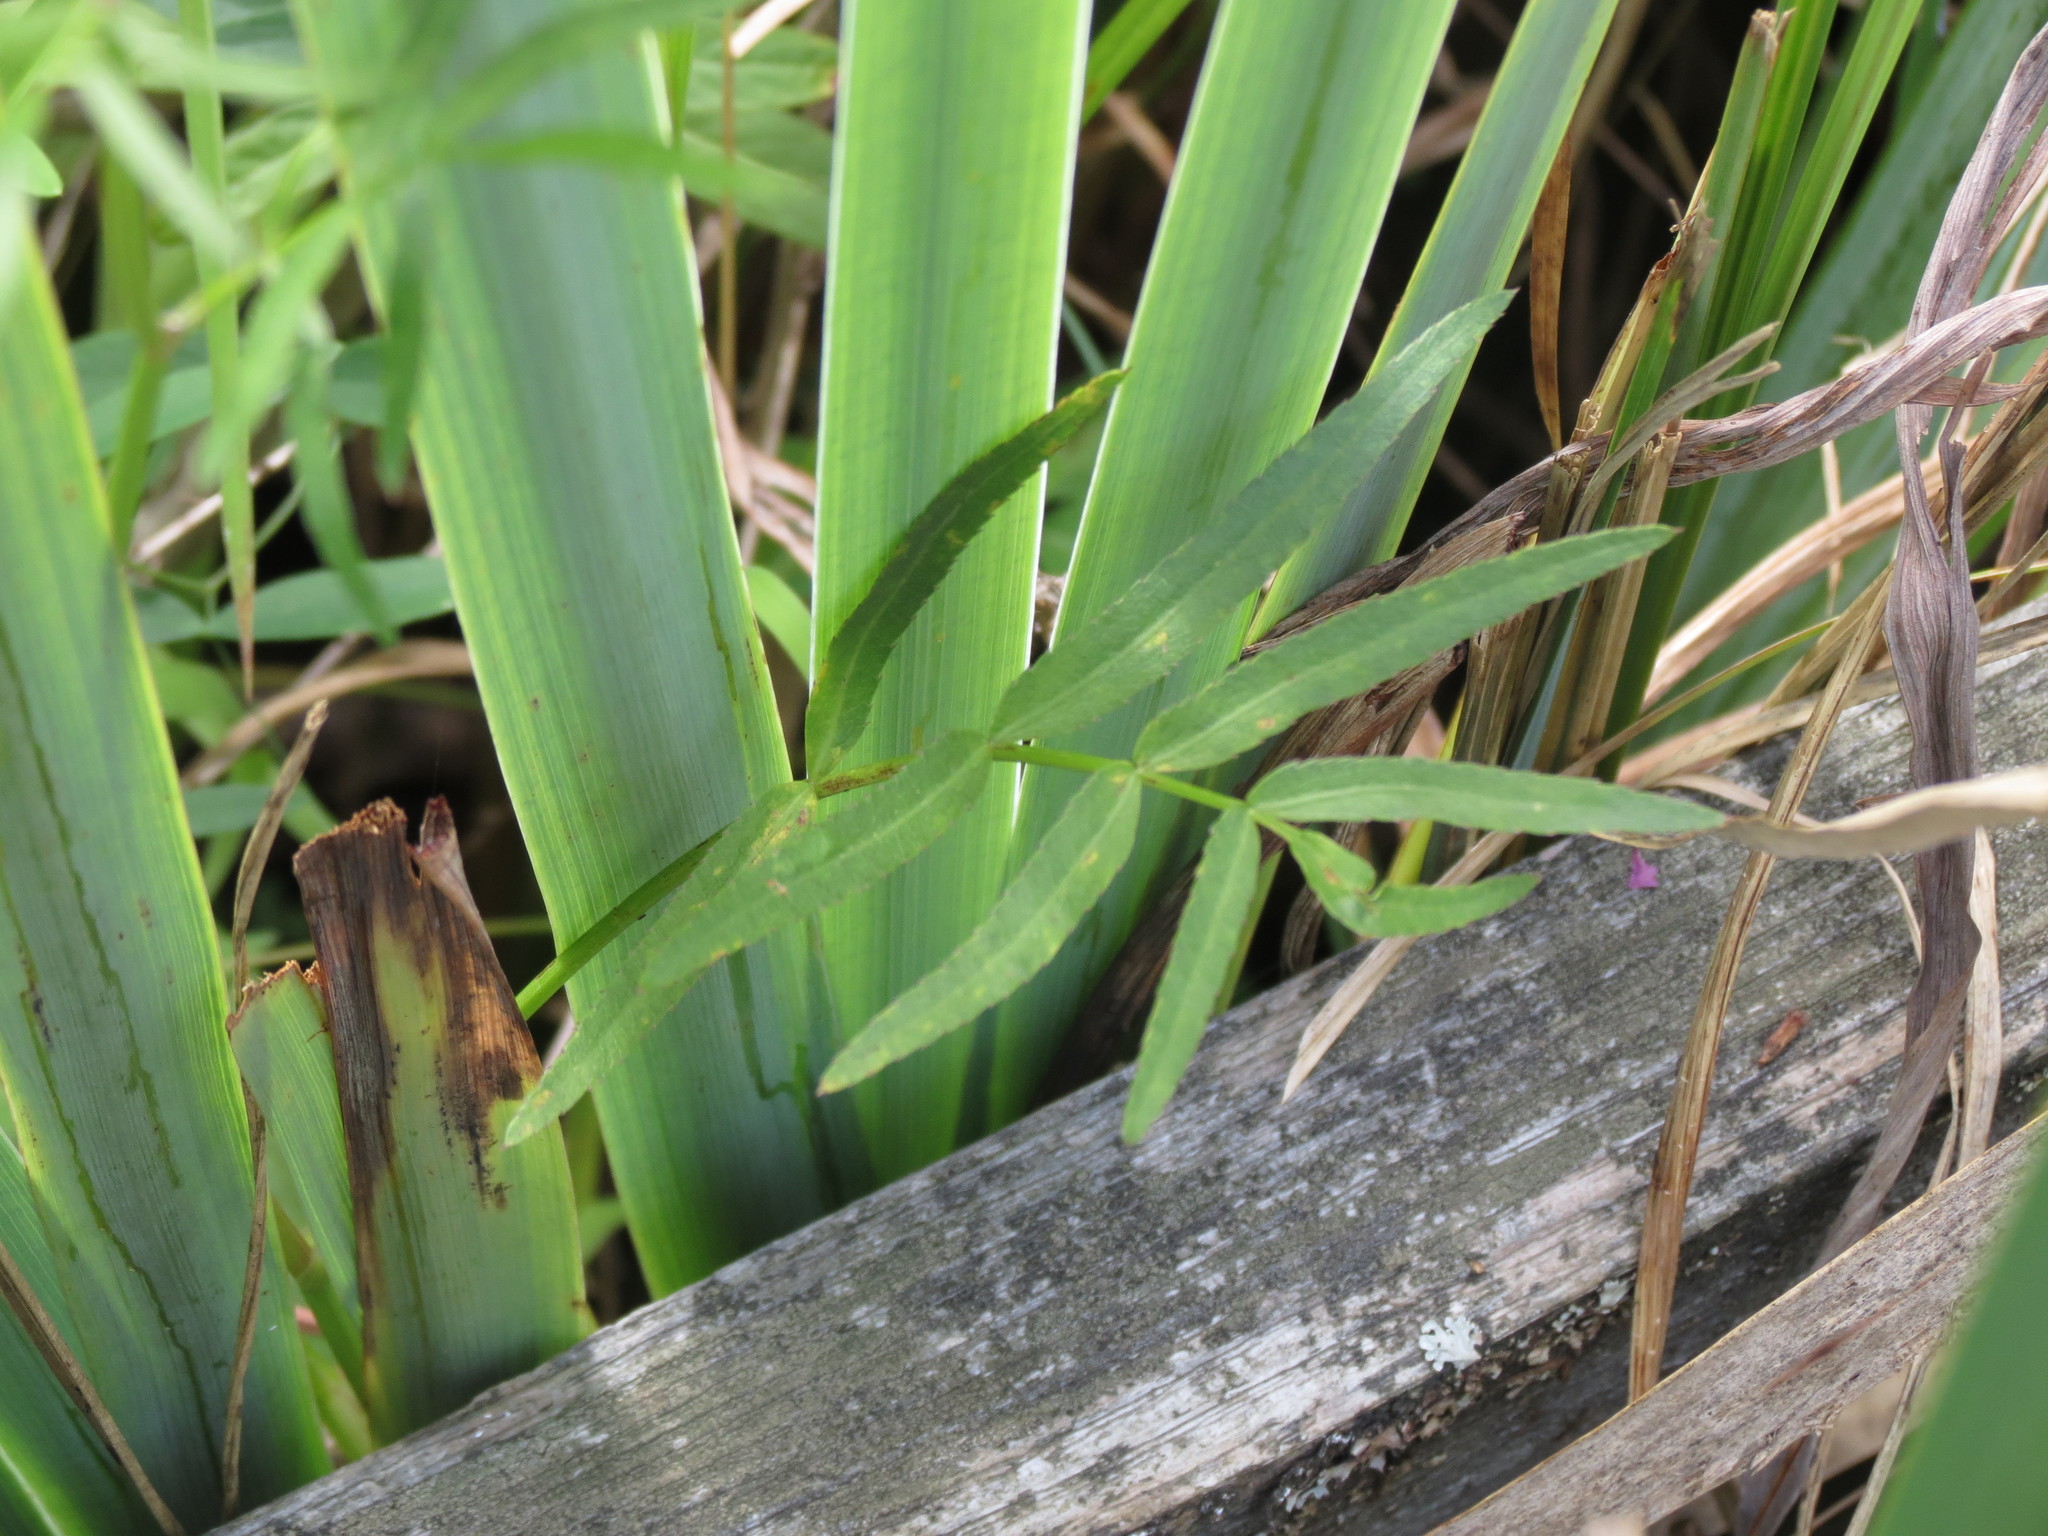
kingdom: Plantae
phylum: Tracheophyta
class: Magnoliopsida
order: Apiales
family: Apiaceae
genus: Sium
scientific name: Sium suave
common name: Hemlock water-parsnip
